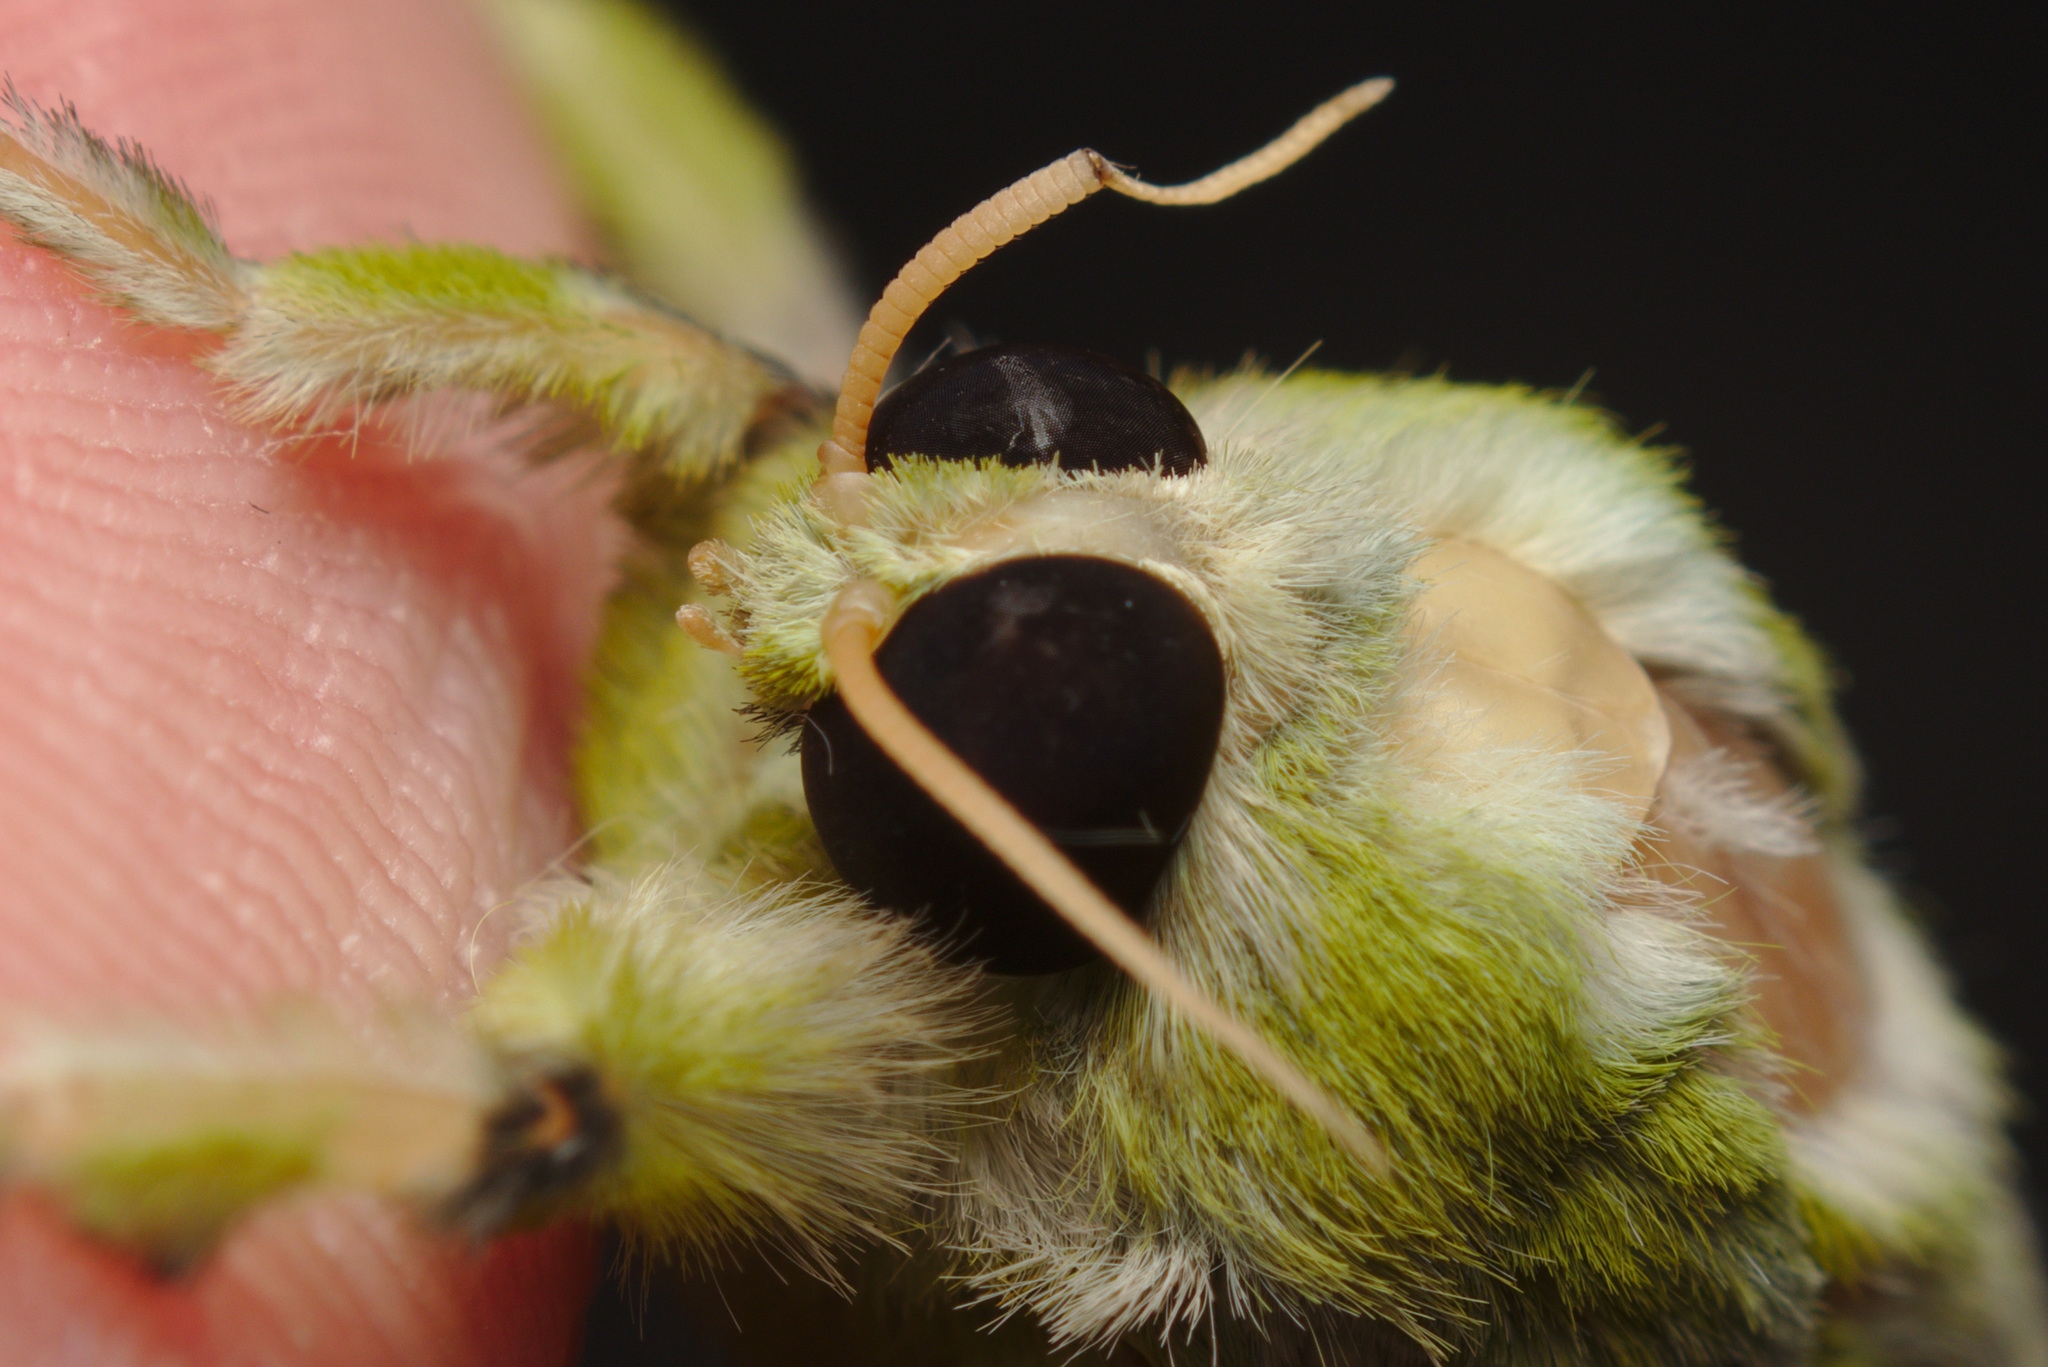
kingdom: Animalia
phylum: Arthropoda
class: Insecta
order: Lepidoptera
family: Hepialidae
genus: Aenetus
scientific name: Aenetus virescens
